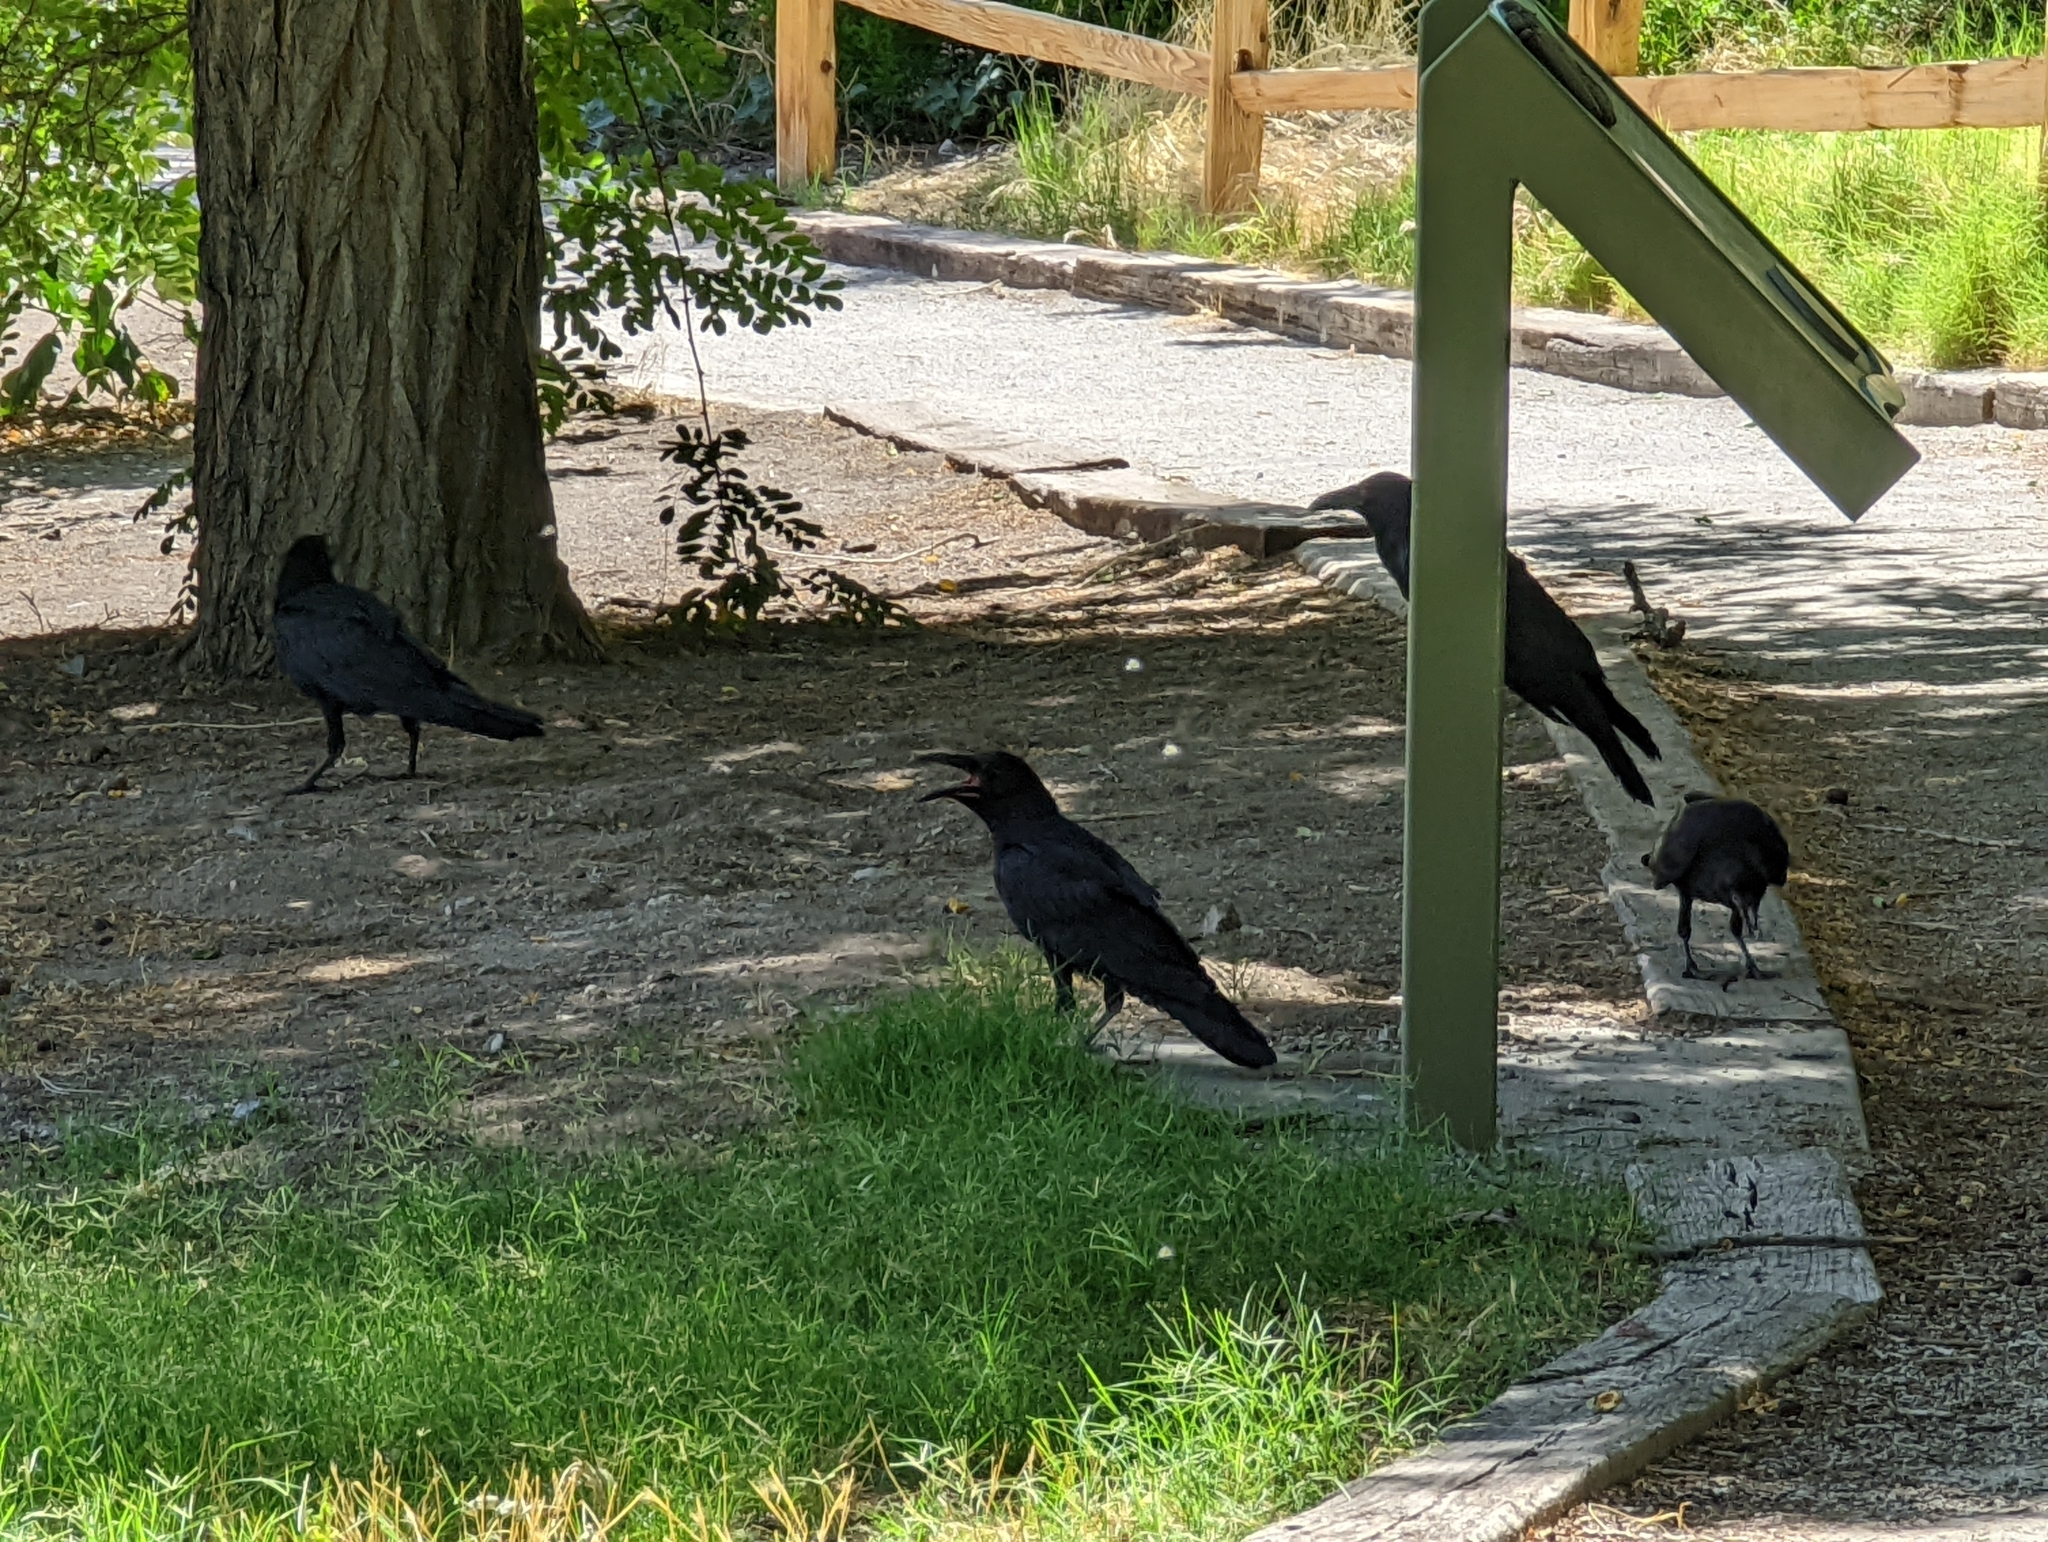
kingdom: Animalia
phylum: Chordata
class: Aves
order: Passeriformes
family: Corvidae
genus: Corvus
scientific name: Corvus corax
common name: Common raven
